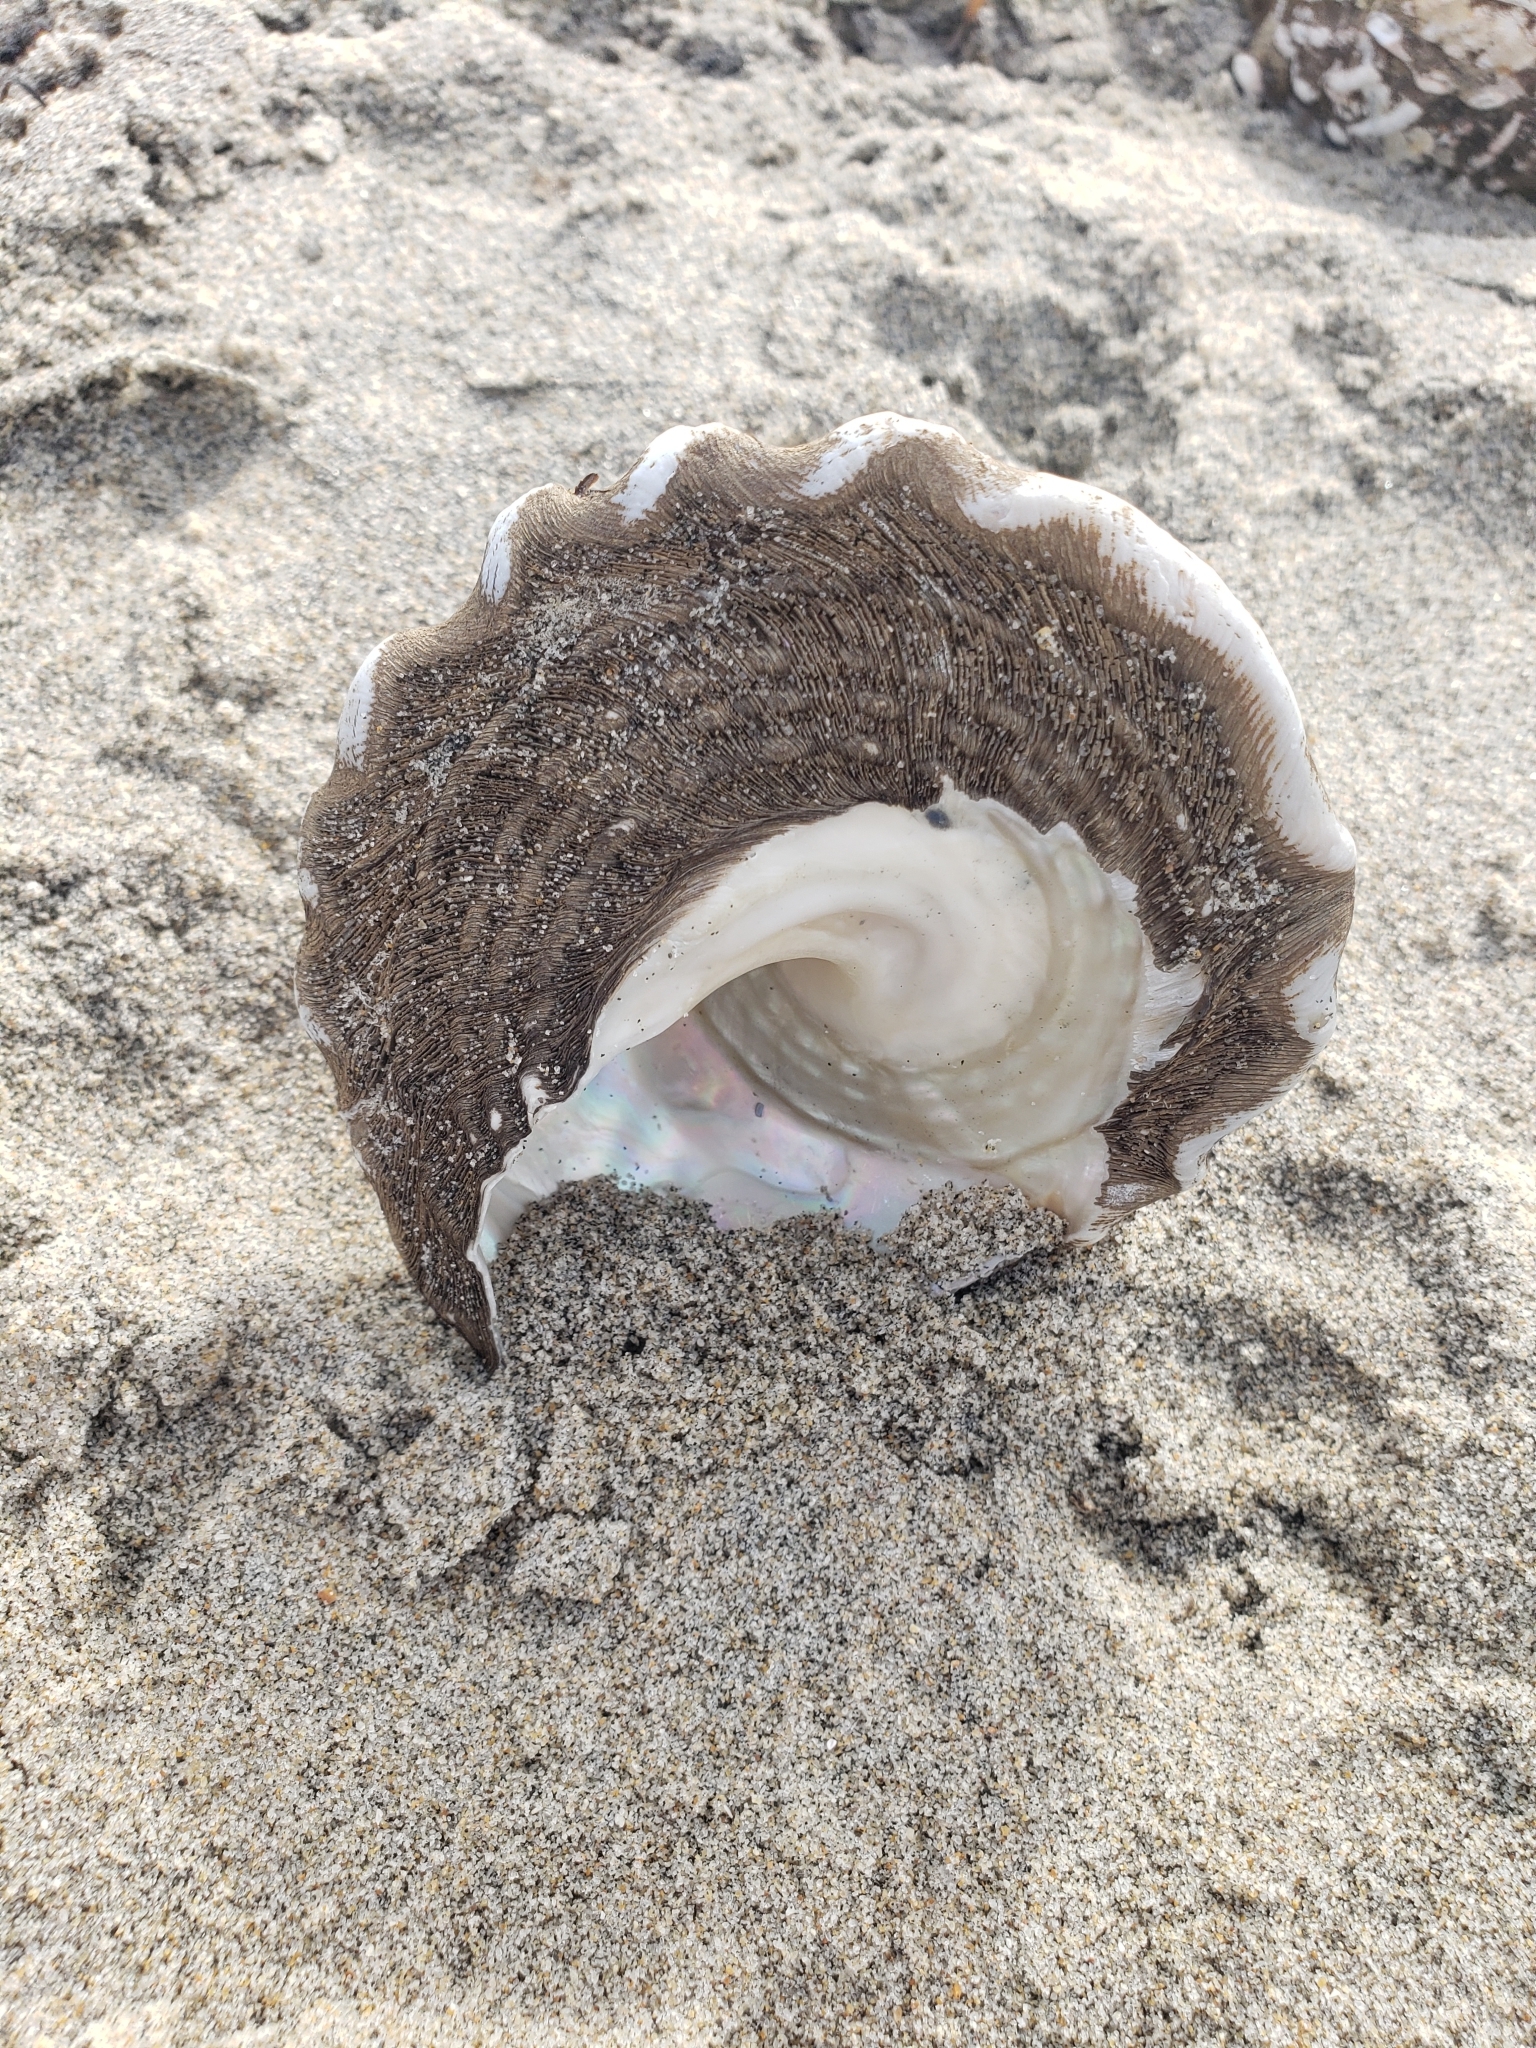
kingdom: Animalia
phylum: Mollusca
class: Gastropoda
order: Trochida
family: Turbinidae
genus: Megastraea
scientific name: Megastraea undosa
